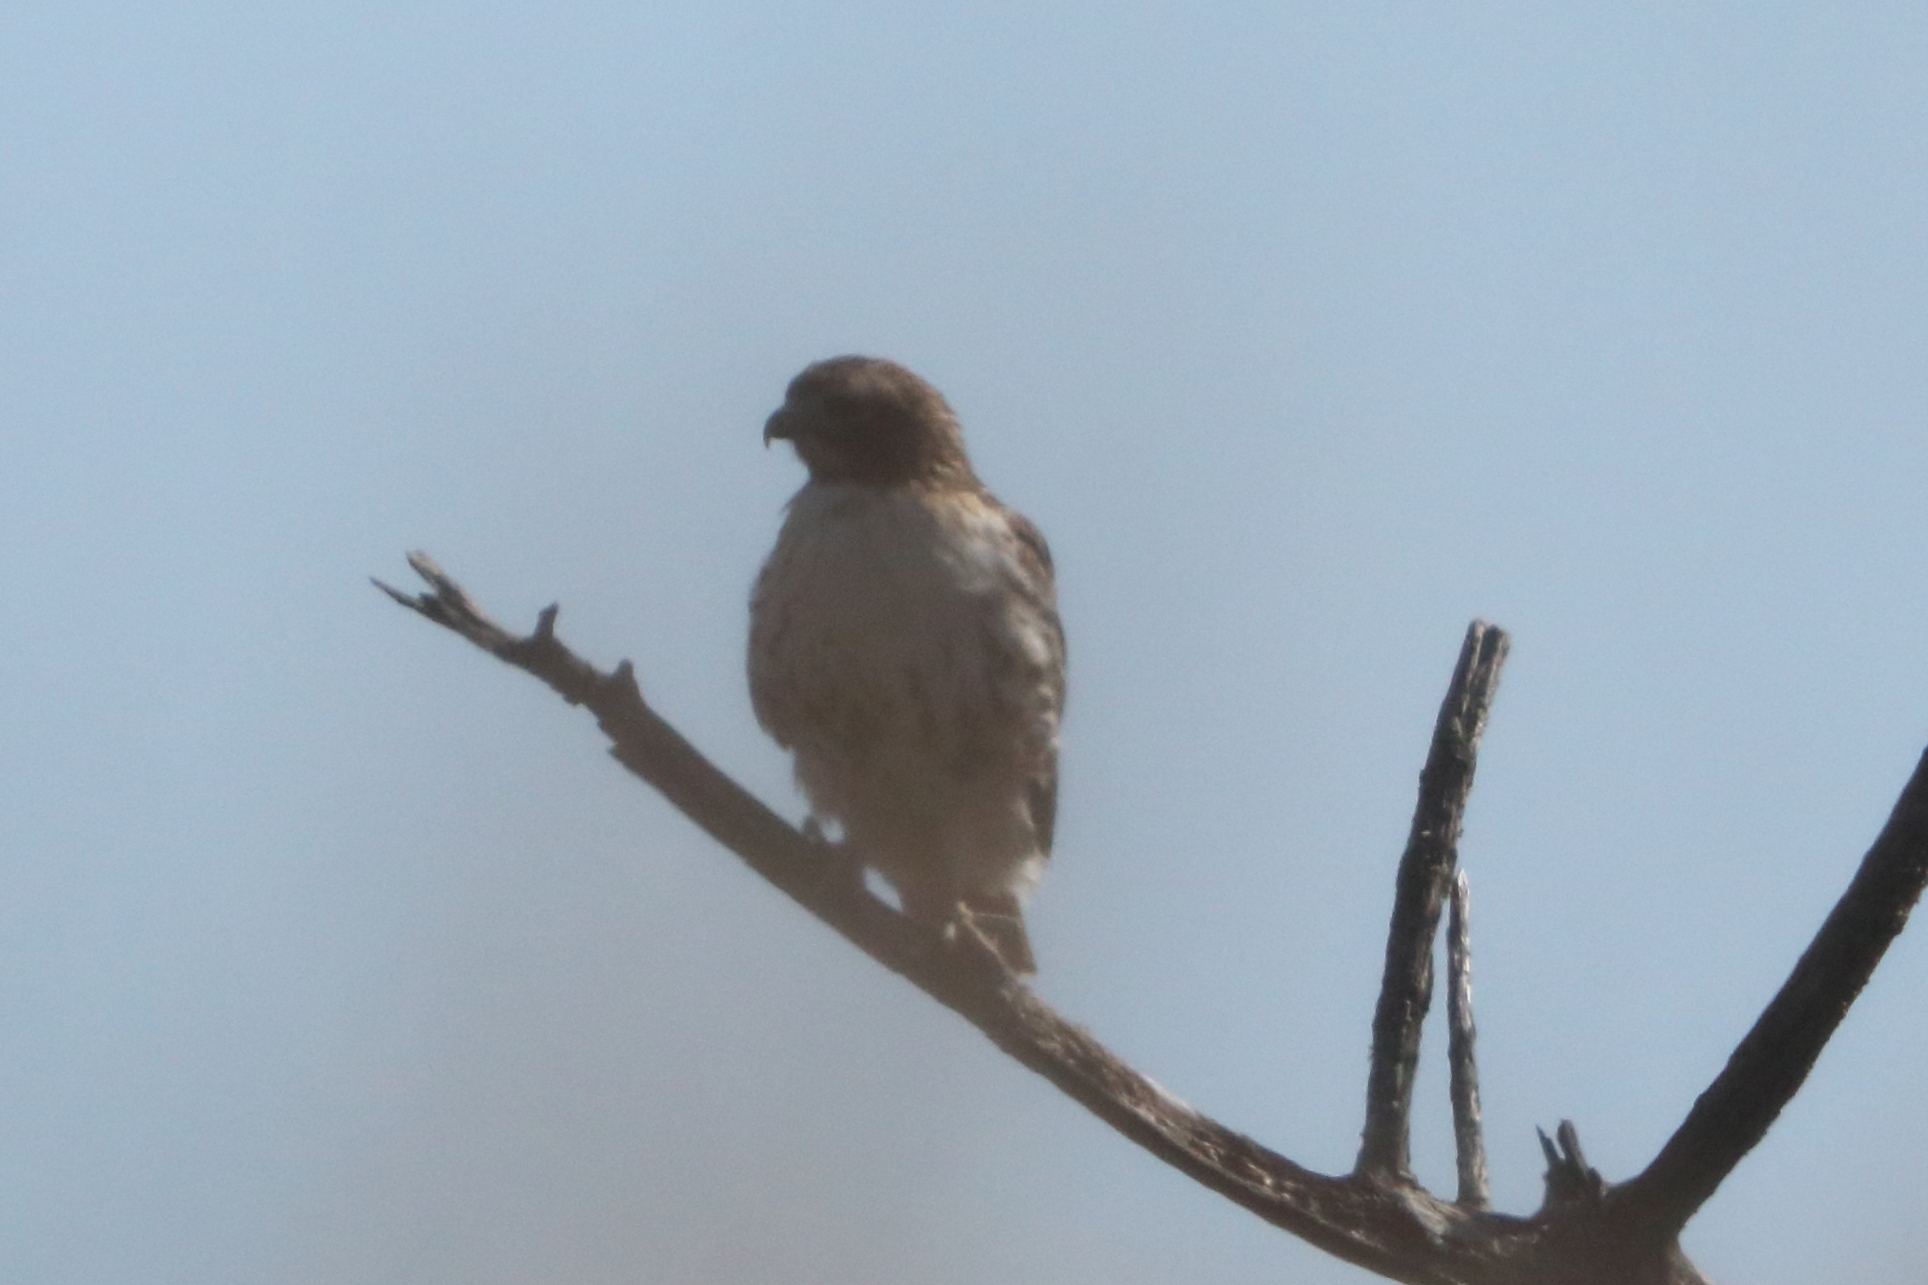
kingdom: Animalia
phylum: Chordata
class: Aves
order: Accipitriformes
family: Accipitridae
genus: Buteo
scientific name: Buteo jamaicensis
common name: Red-tailed hawk
